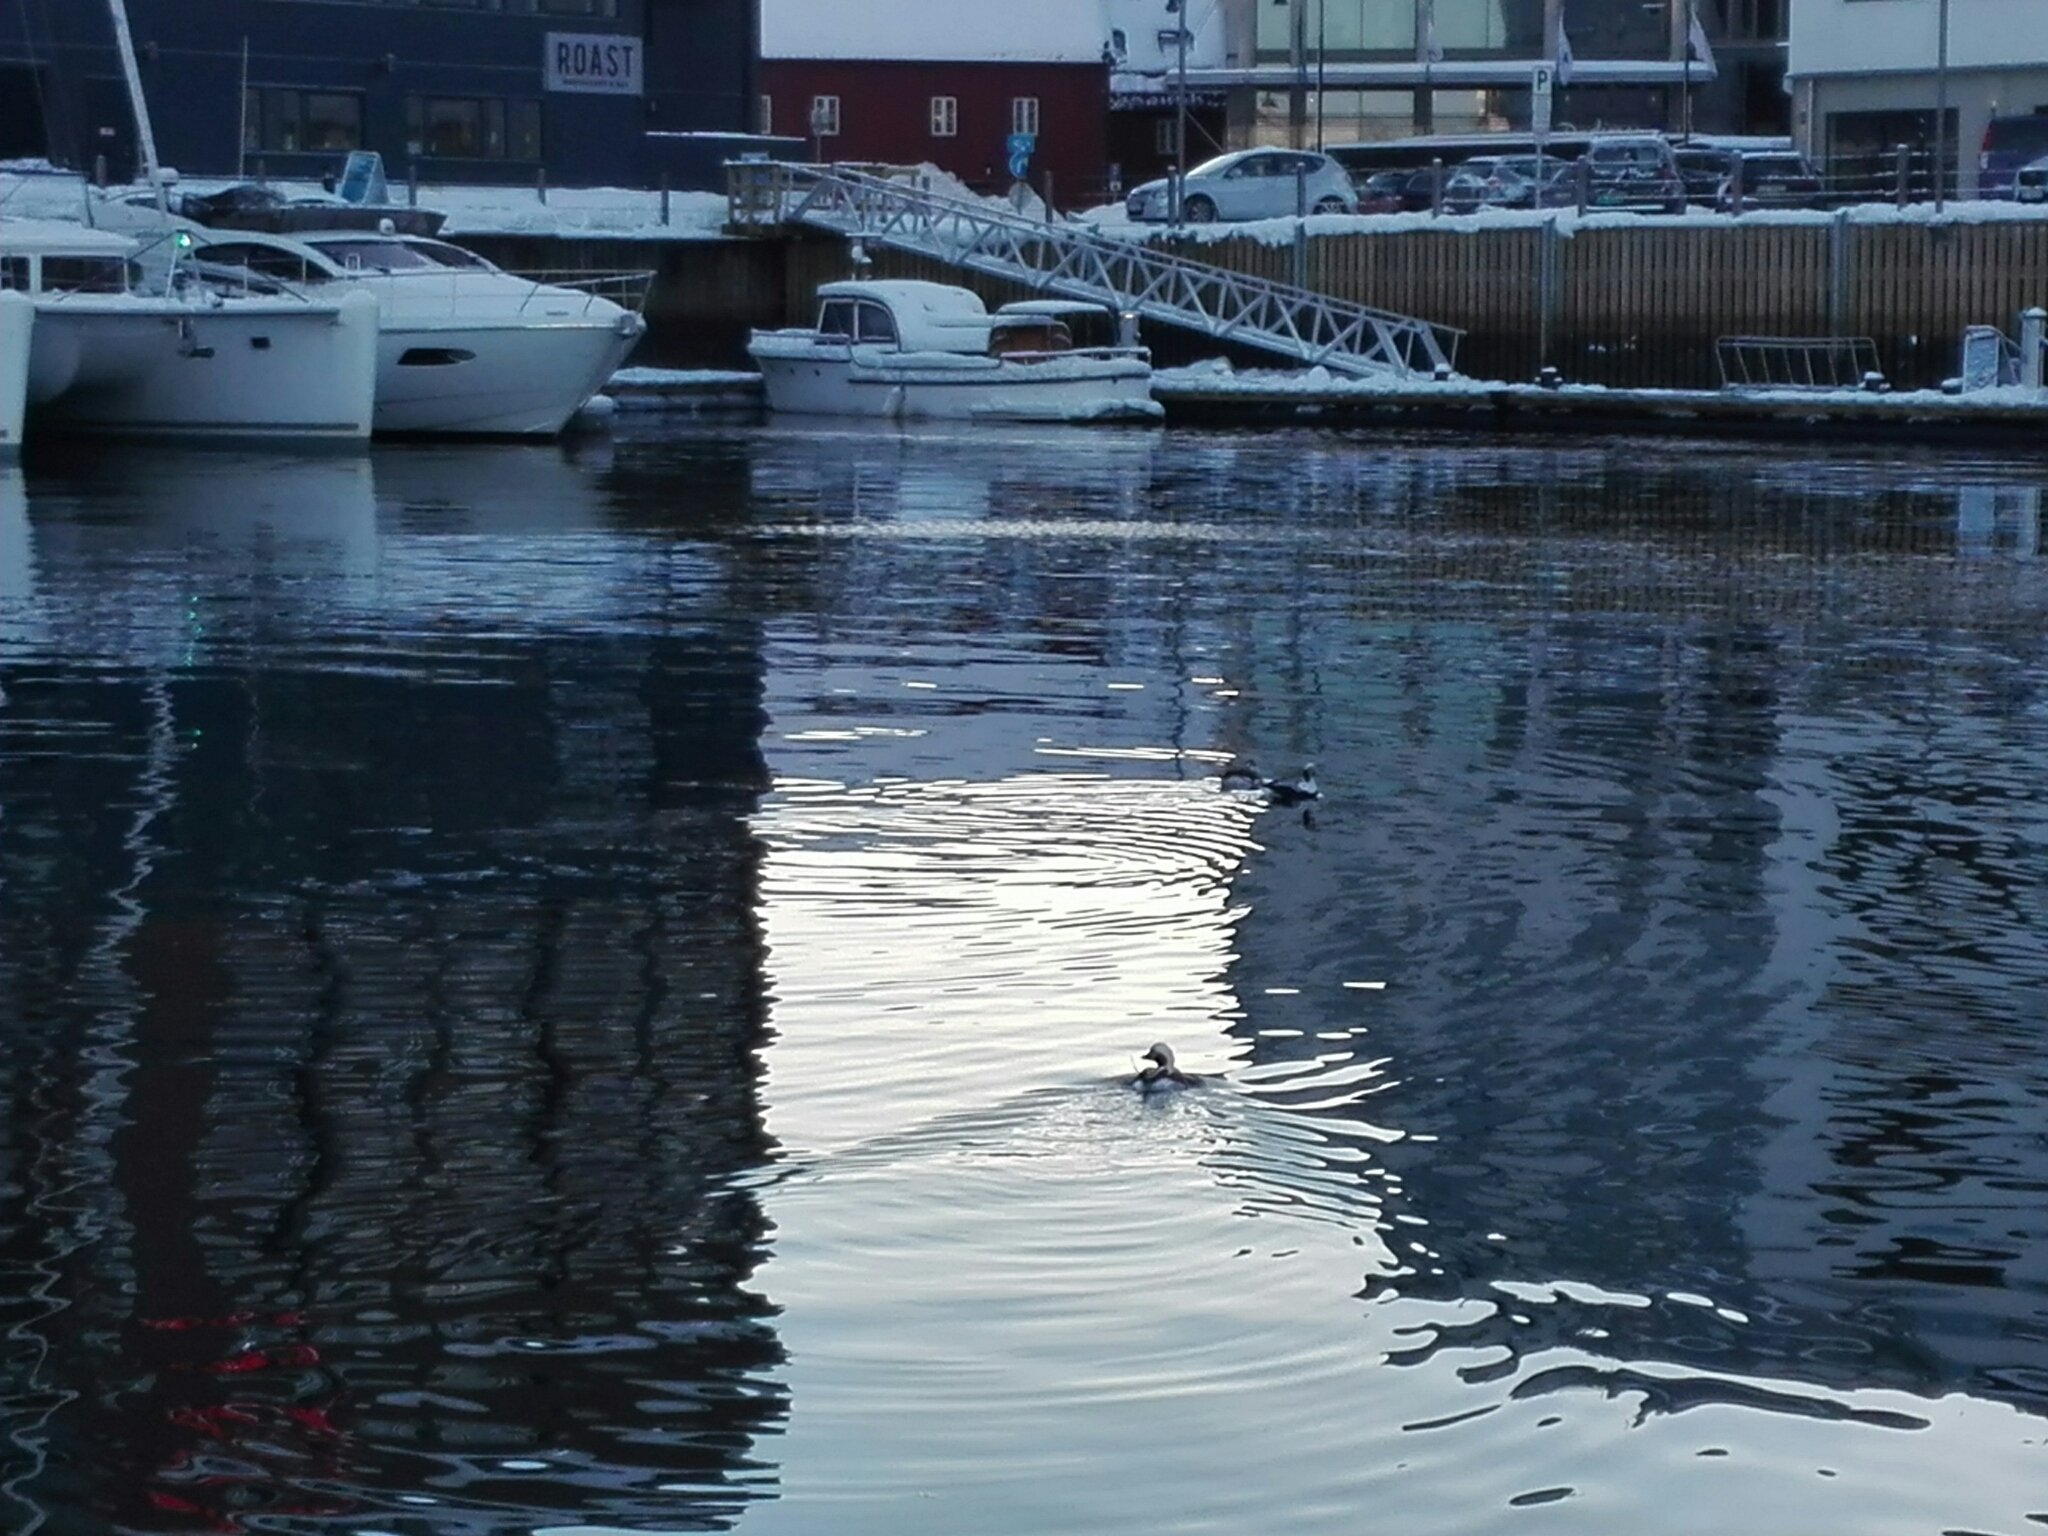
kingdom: Animalia
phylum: Chordata
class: Aves
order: Anseriformes
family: Anatidae
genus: Clangula
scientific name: Clangula hyemalis
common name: Long-tailed duck
